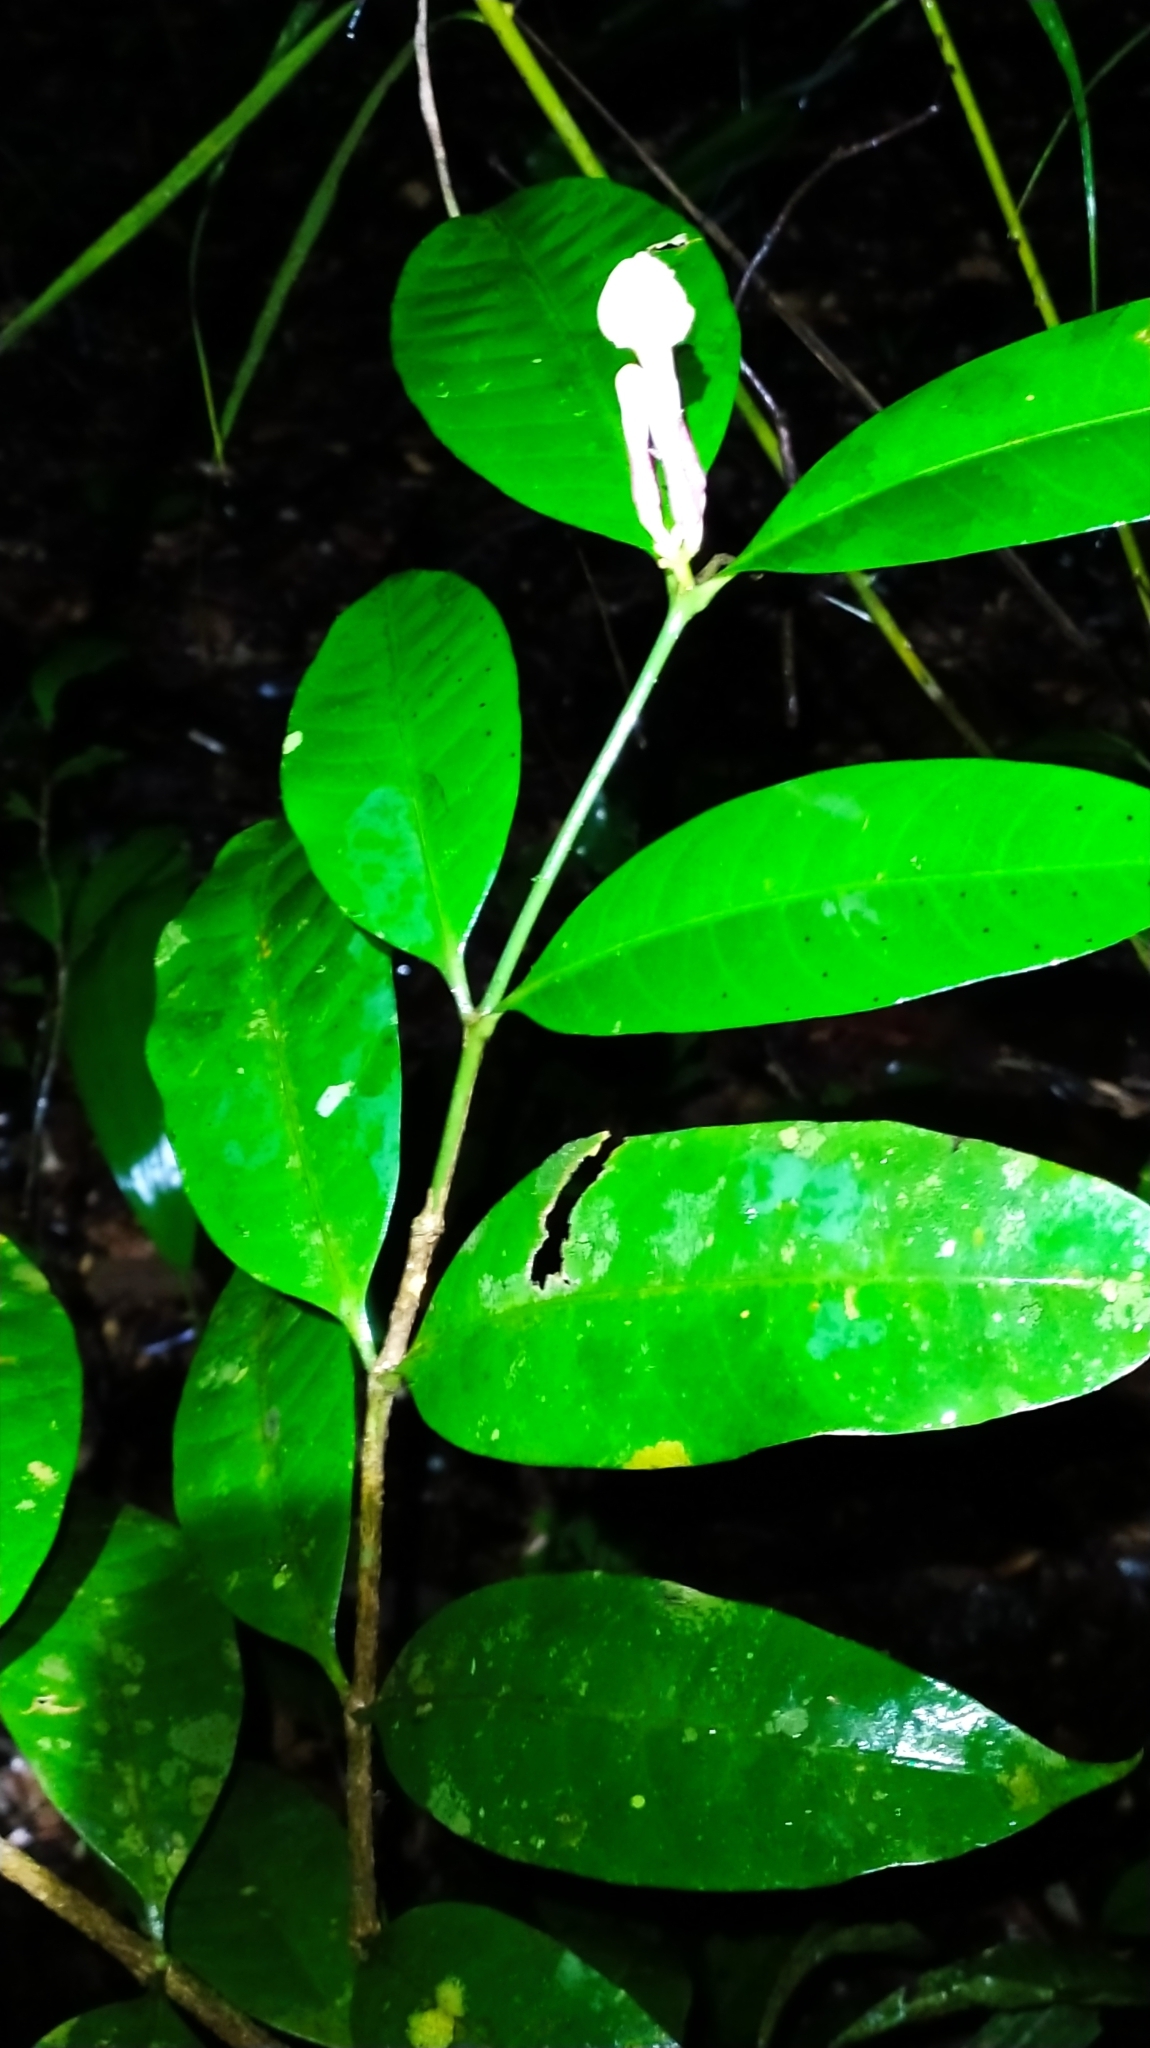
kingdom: Plantae
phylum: Tracheophyta
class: Magnoliopsida
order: Gentianales
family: Apocynaceae
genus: Tabernaemontana
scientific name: Tabernaemontana disticha
